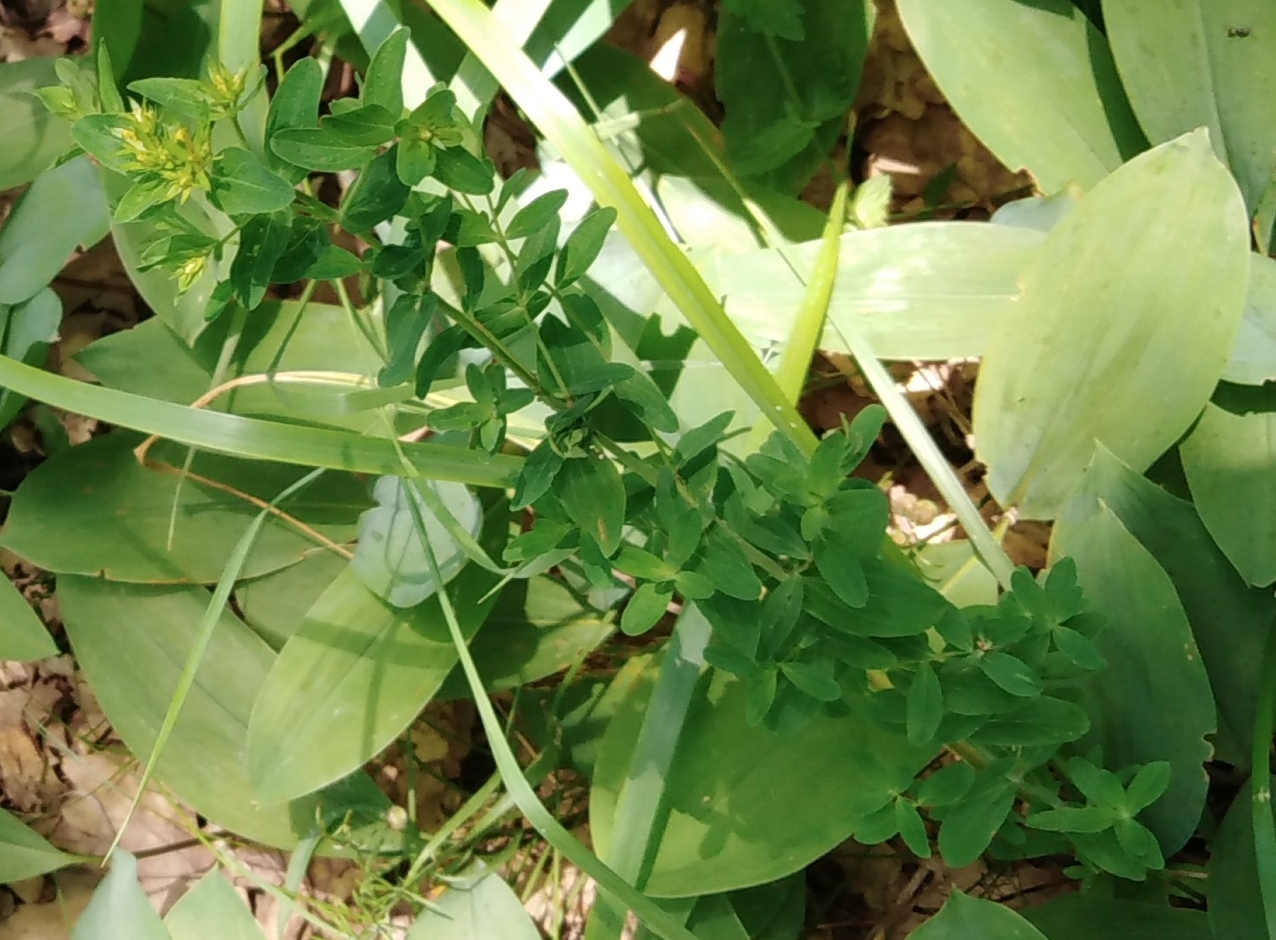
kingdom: Plantae
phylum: Tracheophyta
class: Magnoliopsida
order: Malpighiales
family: Hypericaceae
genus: Hypericum
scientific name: Hypericum perforatum
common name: Common st. johnswort
